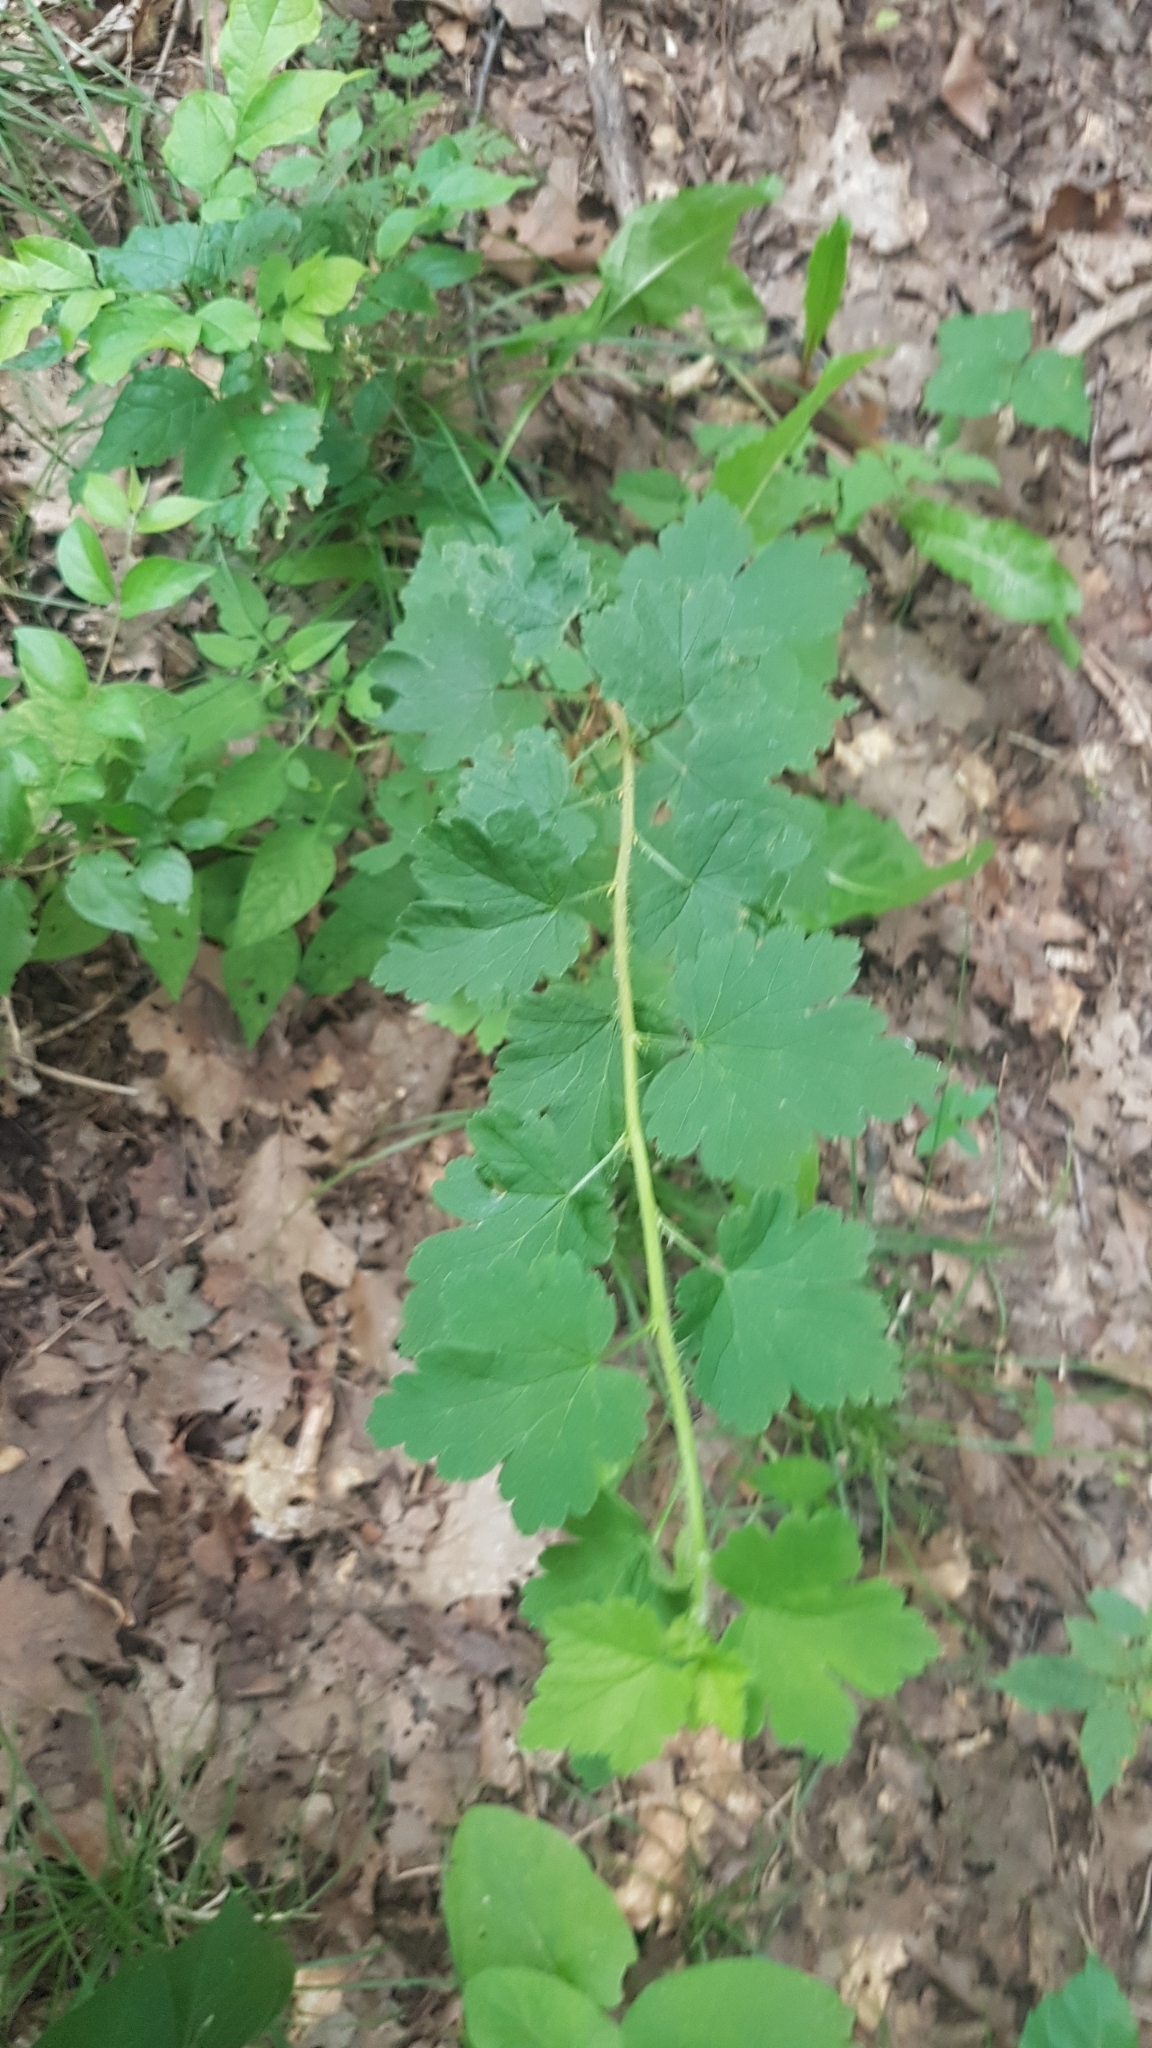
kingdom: Plantae
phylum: Tracheophyta
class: Magnoliopsida
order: Saxifragales
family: Grossulariaceae
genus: Ribes
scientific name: Ribes americanum
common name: American black currant
